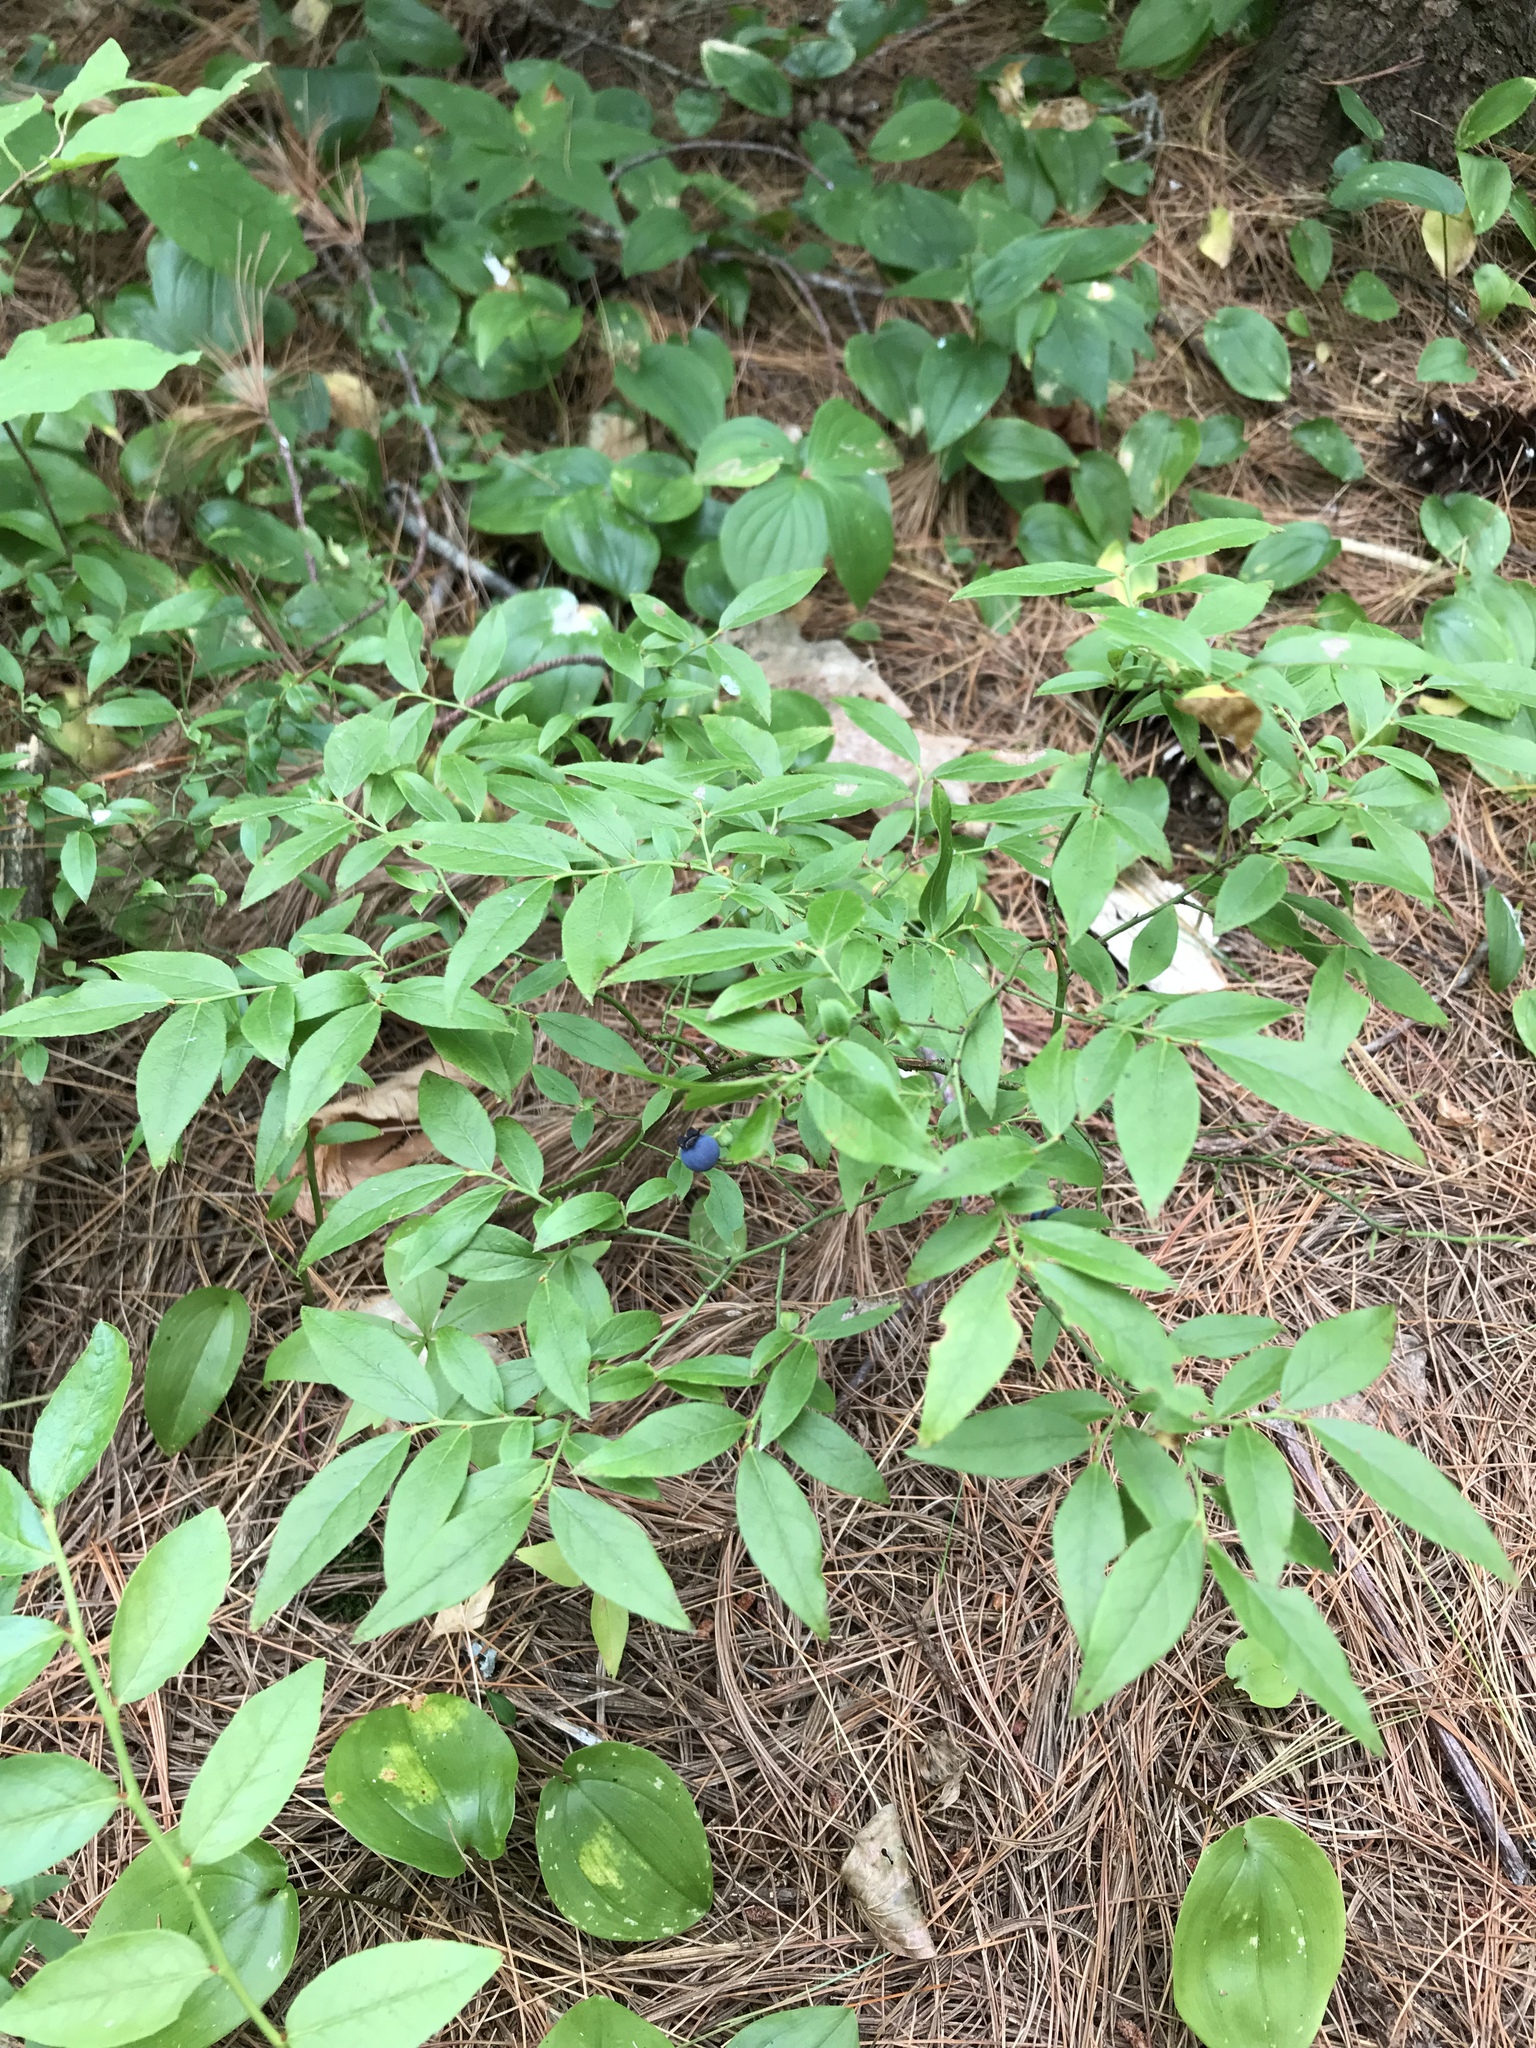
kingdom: Plantae
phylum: Tracheophyta
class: Magnoliopsida
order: Ericales
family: Ericaceae
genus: Vaccinium
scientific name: Vaccinium angustifolium
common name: Early lowbush blueberry
